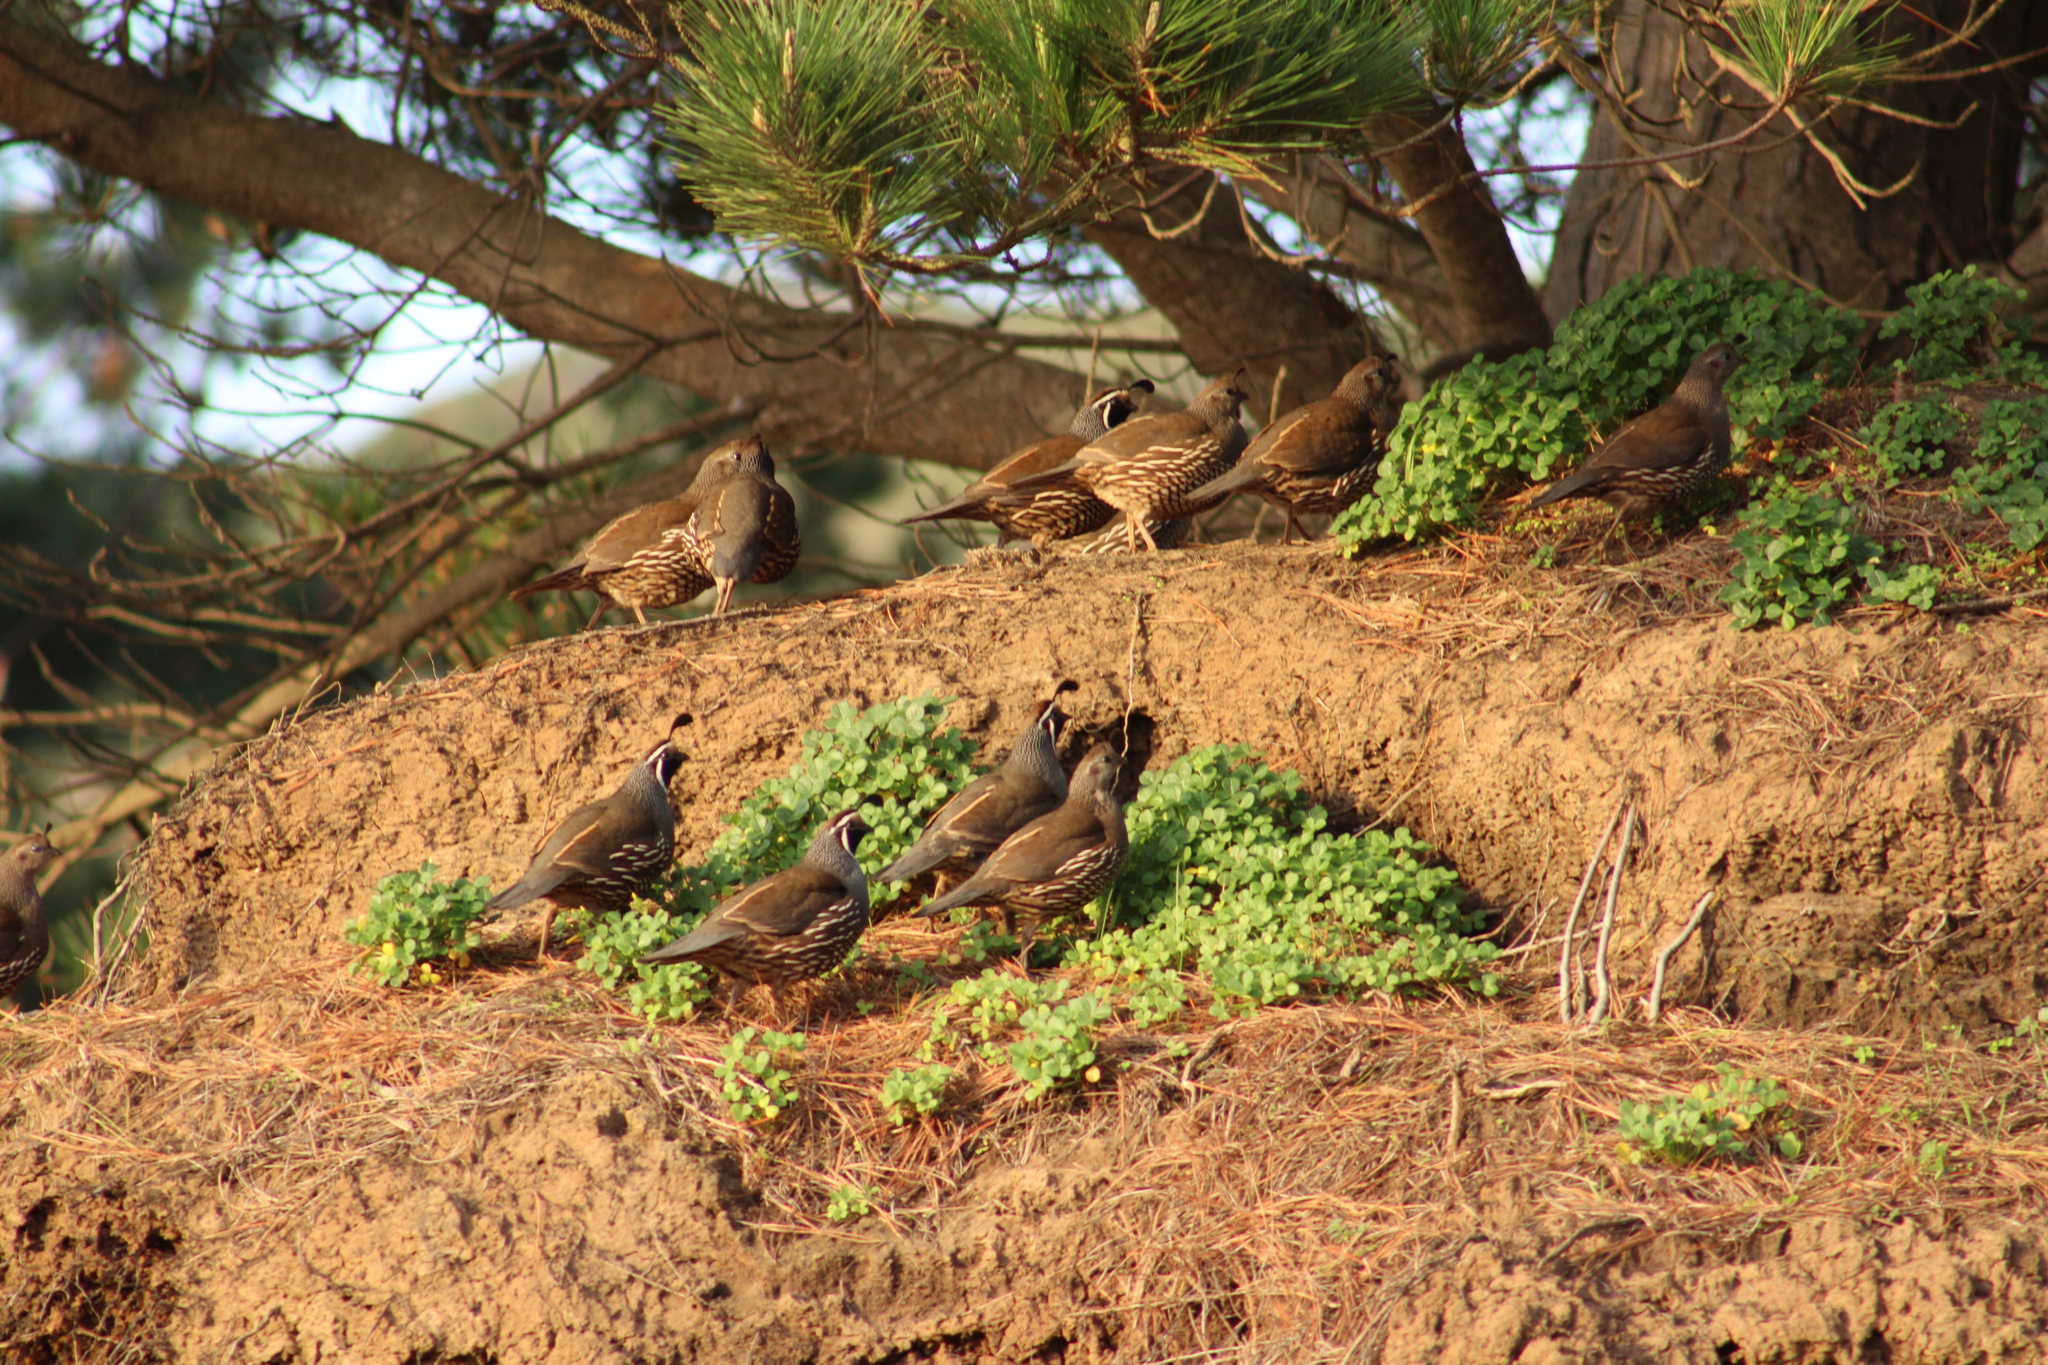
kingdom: Animalia
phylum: Chordata
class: Aves
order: Galliformes
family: Odontophoridae
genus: Callipepla
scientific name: Callipepla californica
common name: California quail
